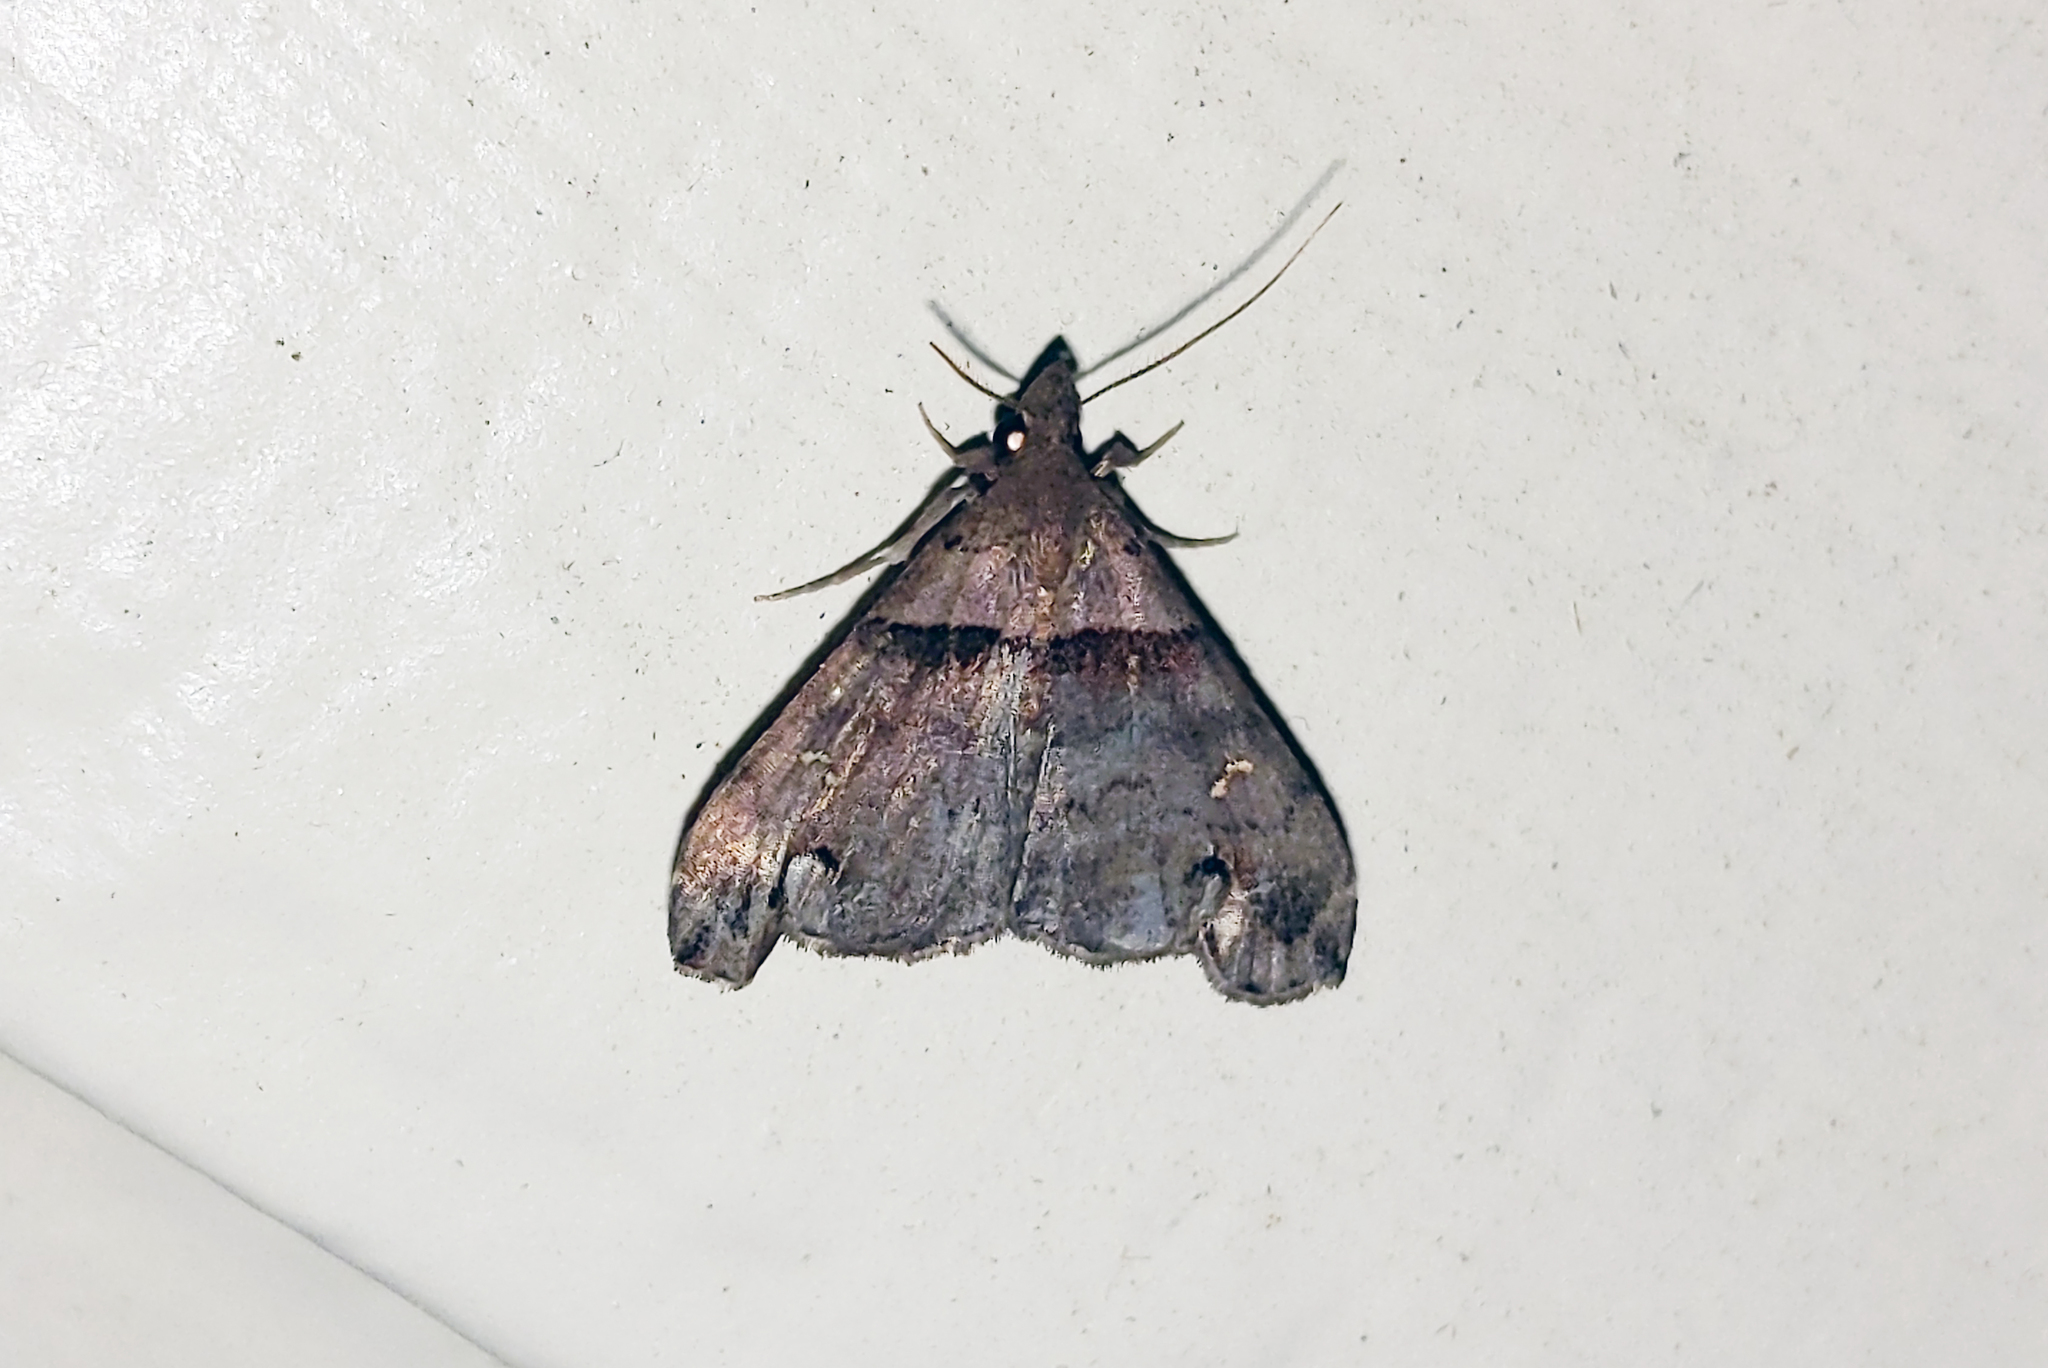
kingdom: Animalia
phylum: Arthropoda
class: Insecta
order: Lepidoptera
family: Erebidae
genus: Lascoria
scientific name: Lascoria ambigualis
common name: Ambiguous moth
